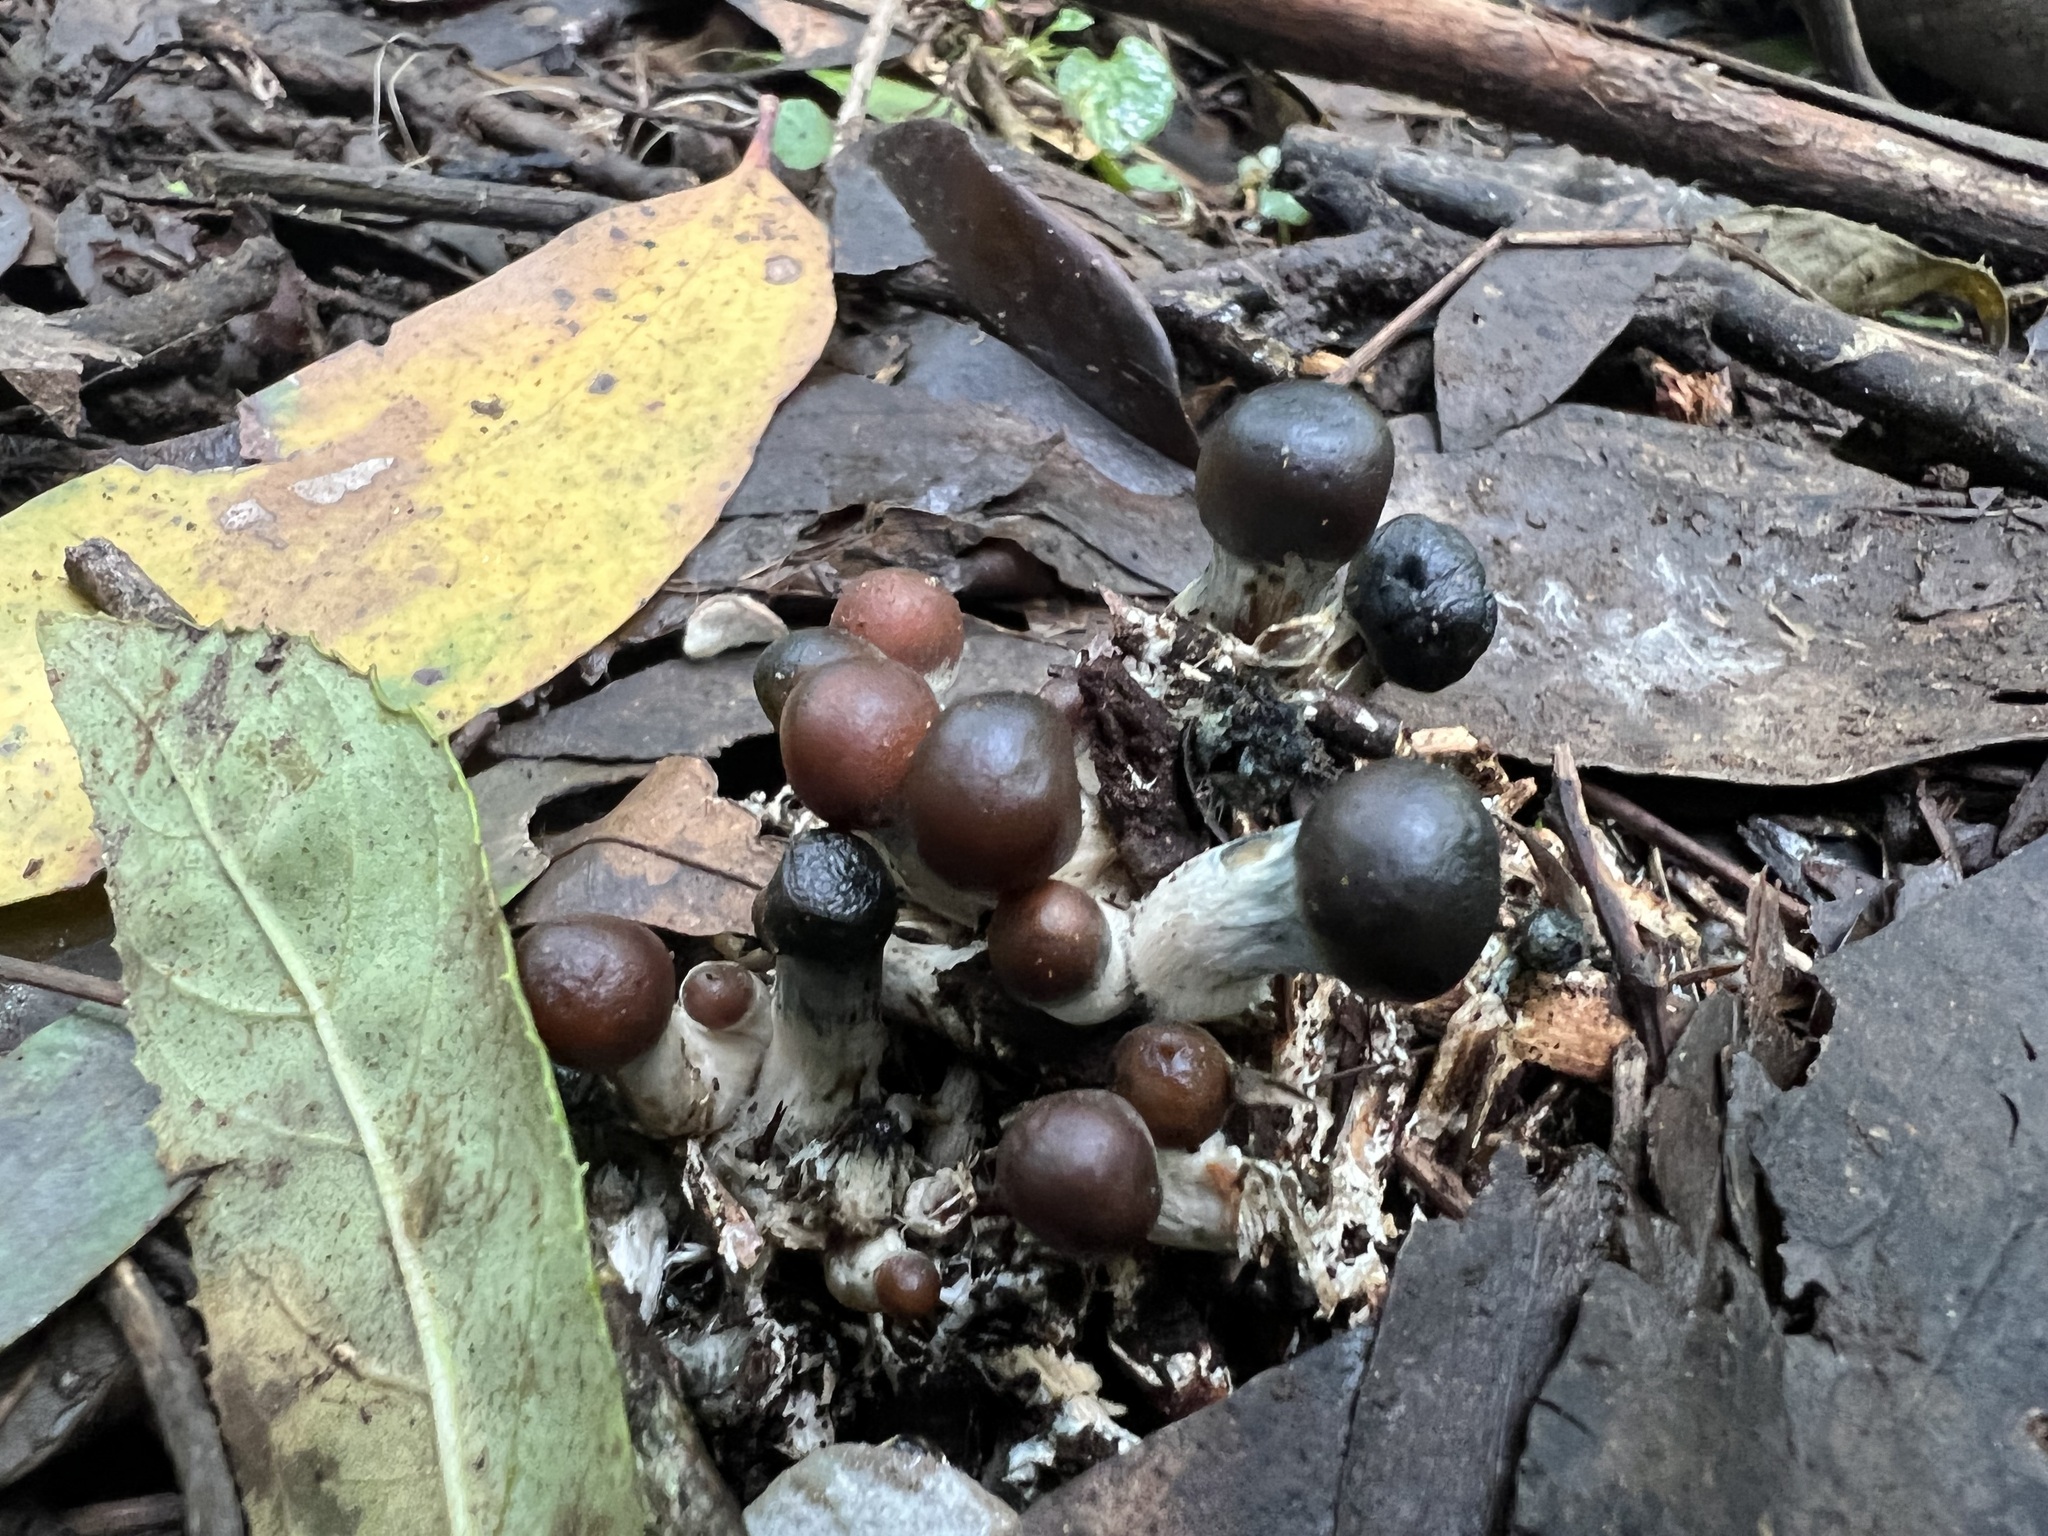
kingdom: Fungi
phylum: Basidiomycota
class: Agaricomycetes
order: Agaricales
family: Hymenogastraceae
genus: Psilocybe
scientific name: Psilocybe subaeruginosa
